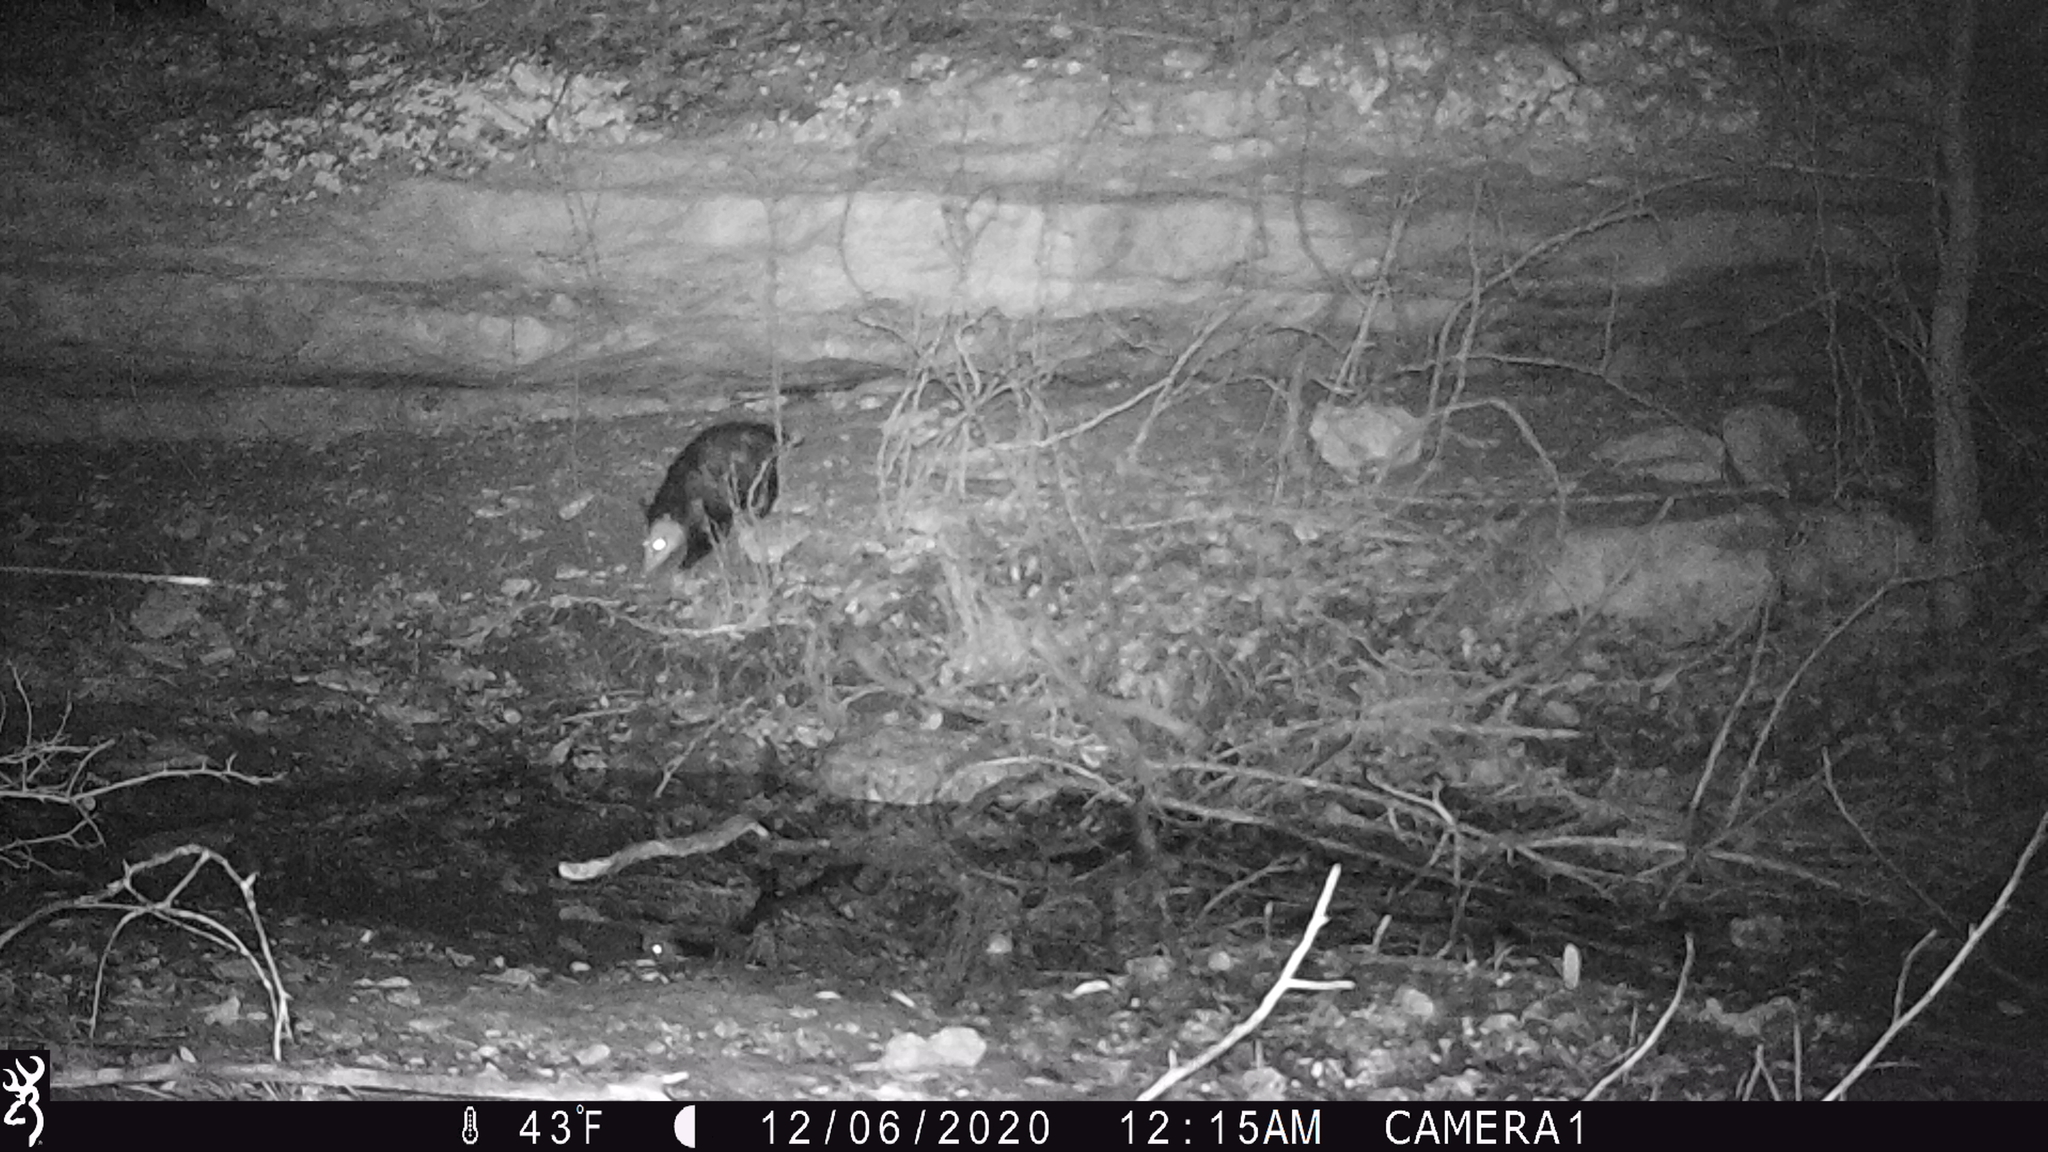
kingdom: Animalia
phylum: Chordata
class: Mammalia
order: Didelphimorphia
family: Didelphidae
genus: Didelphis
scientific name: Didelphis virginiana
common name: Virginia opossum
